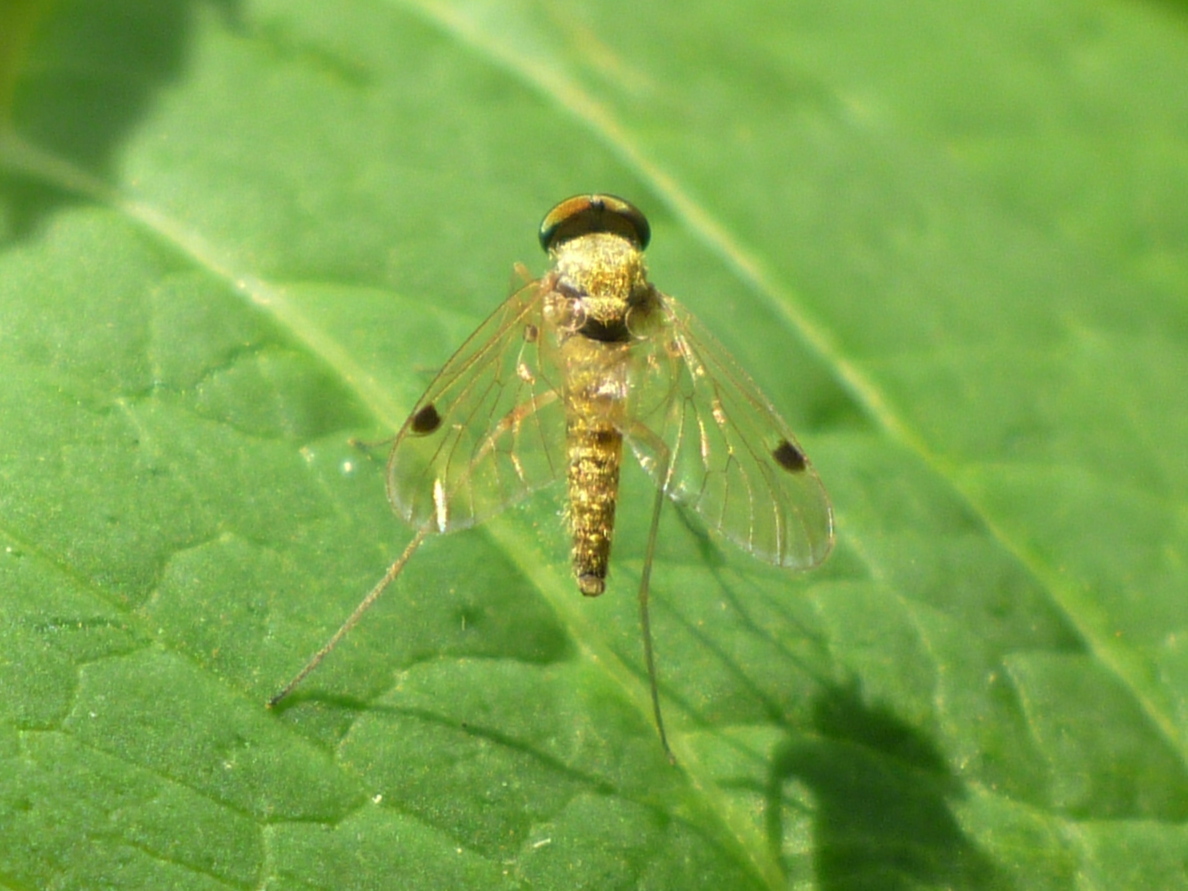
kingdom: Animalia
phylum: Arthropoda
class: Insecta
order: Diptera
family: Rhagionidae
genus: Chrysopilus
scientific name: Chrysopilus modestus
